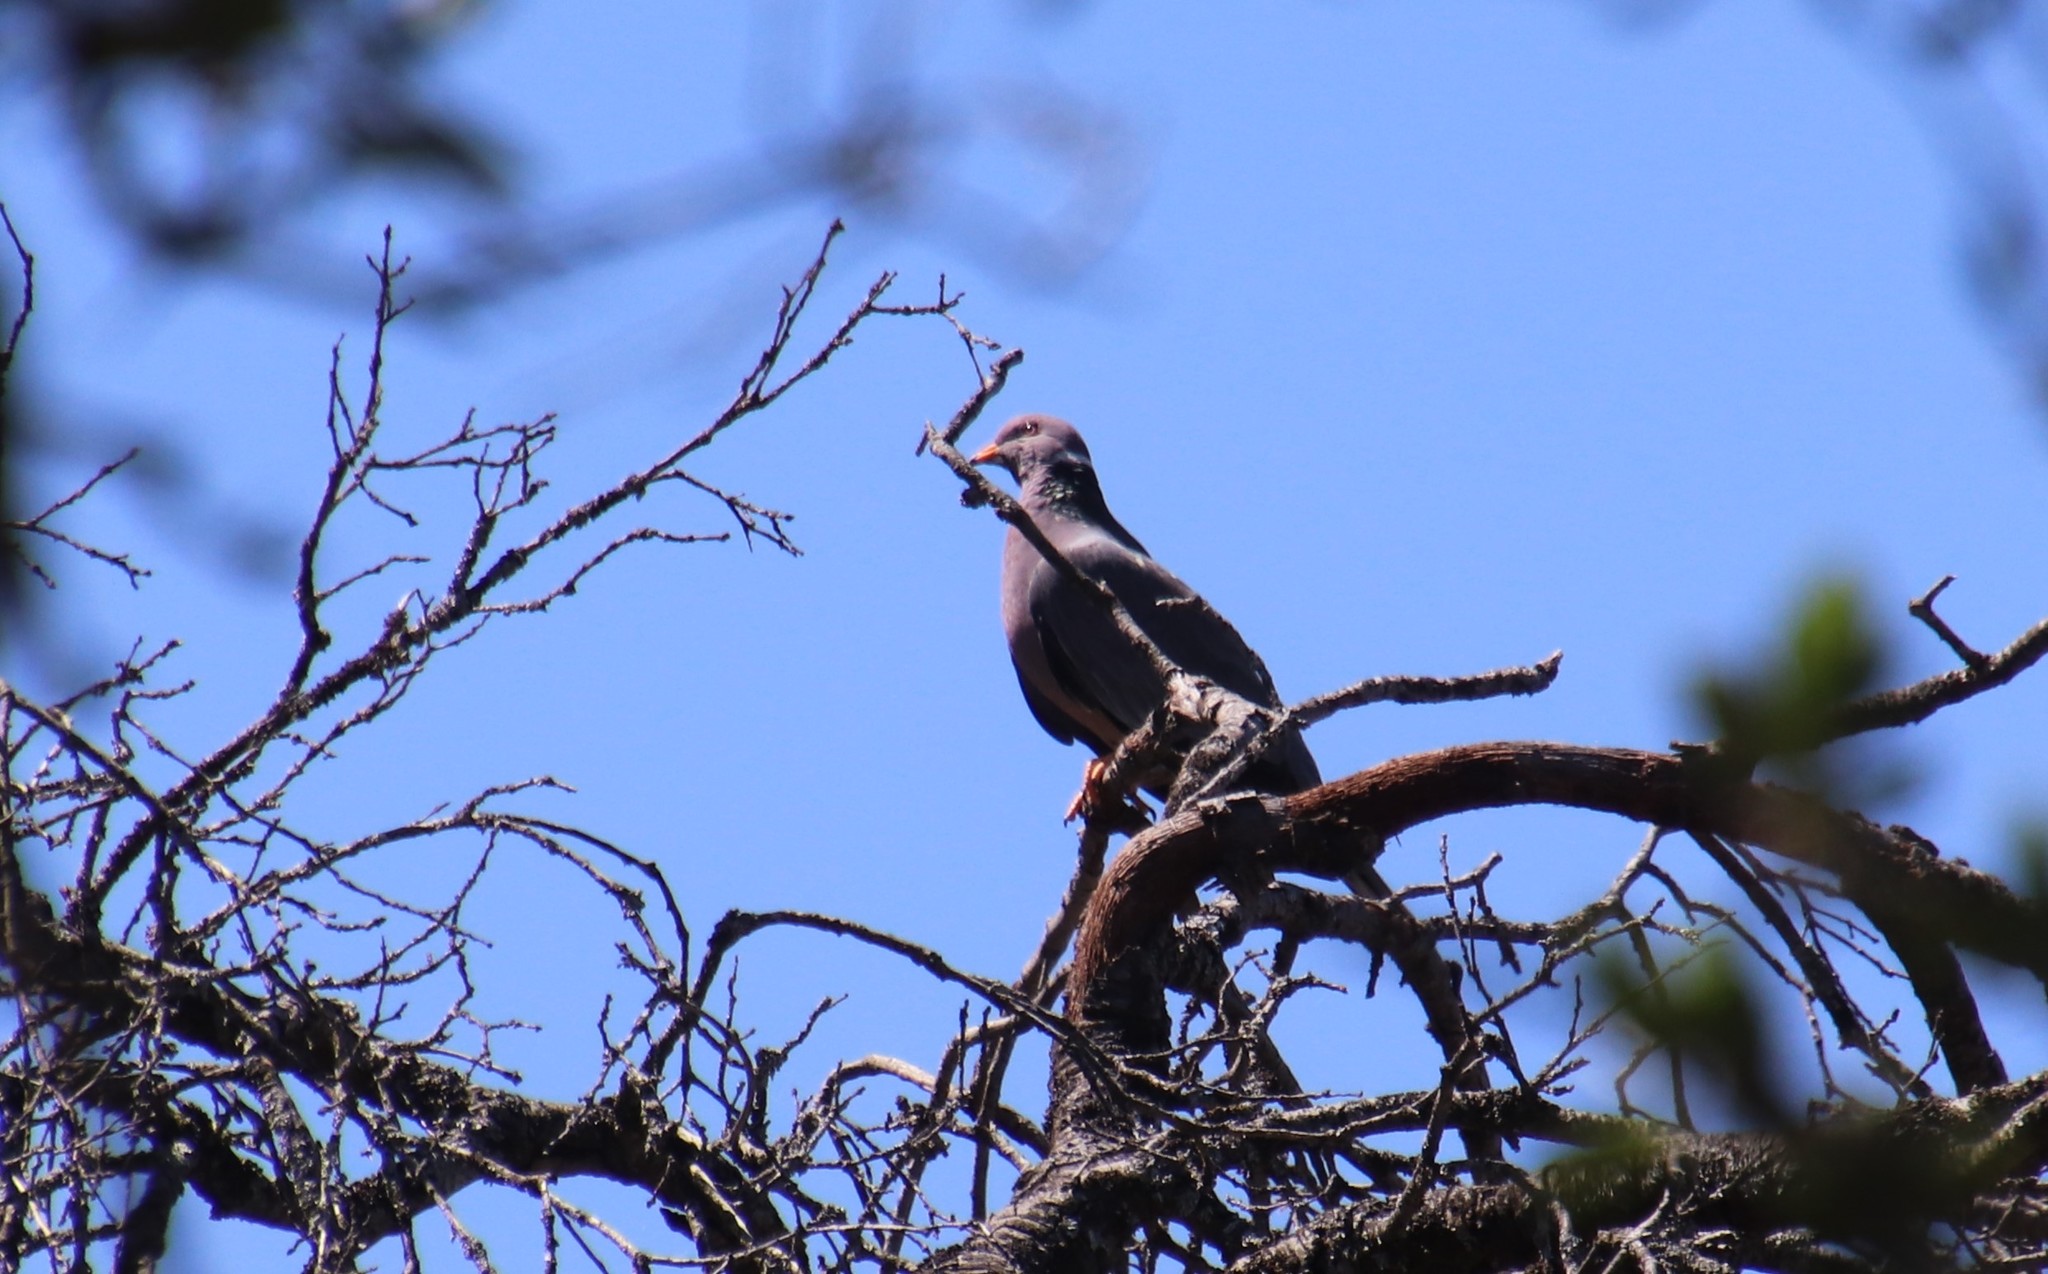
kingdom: Animalia
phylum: Chordata
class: Aves
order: Columbiformes
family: Columbidae
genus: Patagioenas
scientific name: Patagioenas fasciata
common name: Band-tailed pigeon
